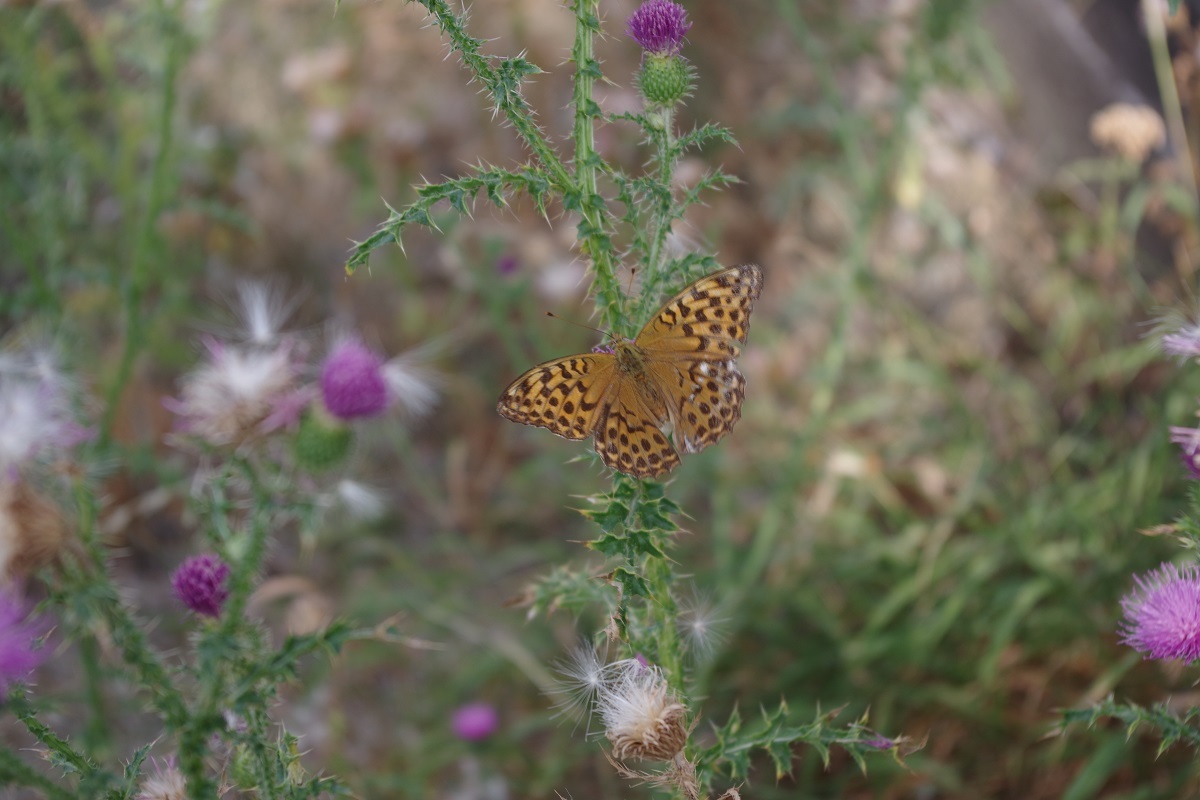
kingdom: Animalia
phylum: Arthropoda
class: Insecta
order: Lepidoptera
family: Nymphalidae
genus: Argynnis
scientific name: Argynnis paphia
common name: Silver-washed fritillary
